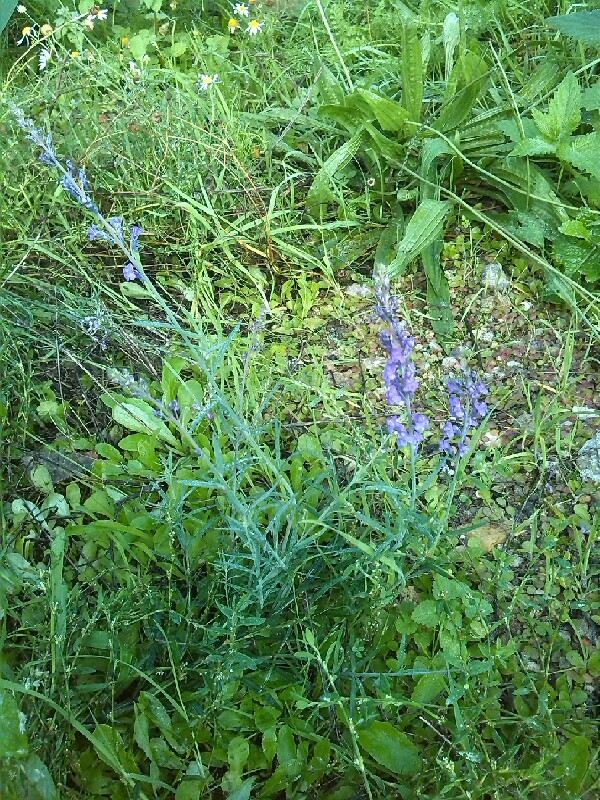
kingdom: Plantae
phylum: Tracheophyta
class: Magnoliopsida
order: Lamiales
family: Plantaginaceae
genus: Linaria
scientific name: Linaria purpurea
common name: Purple toadflax
